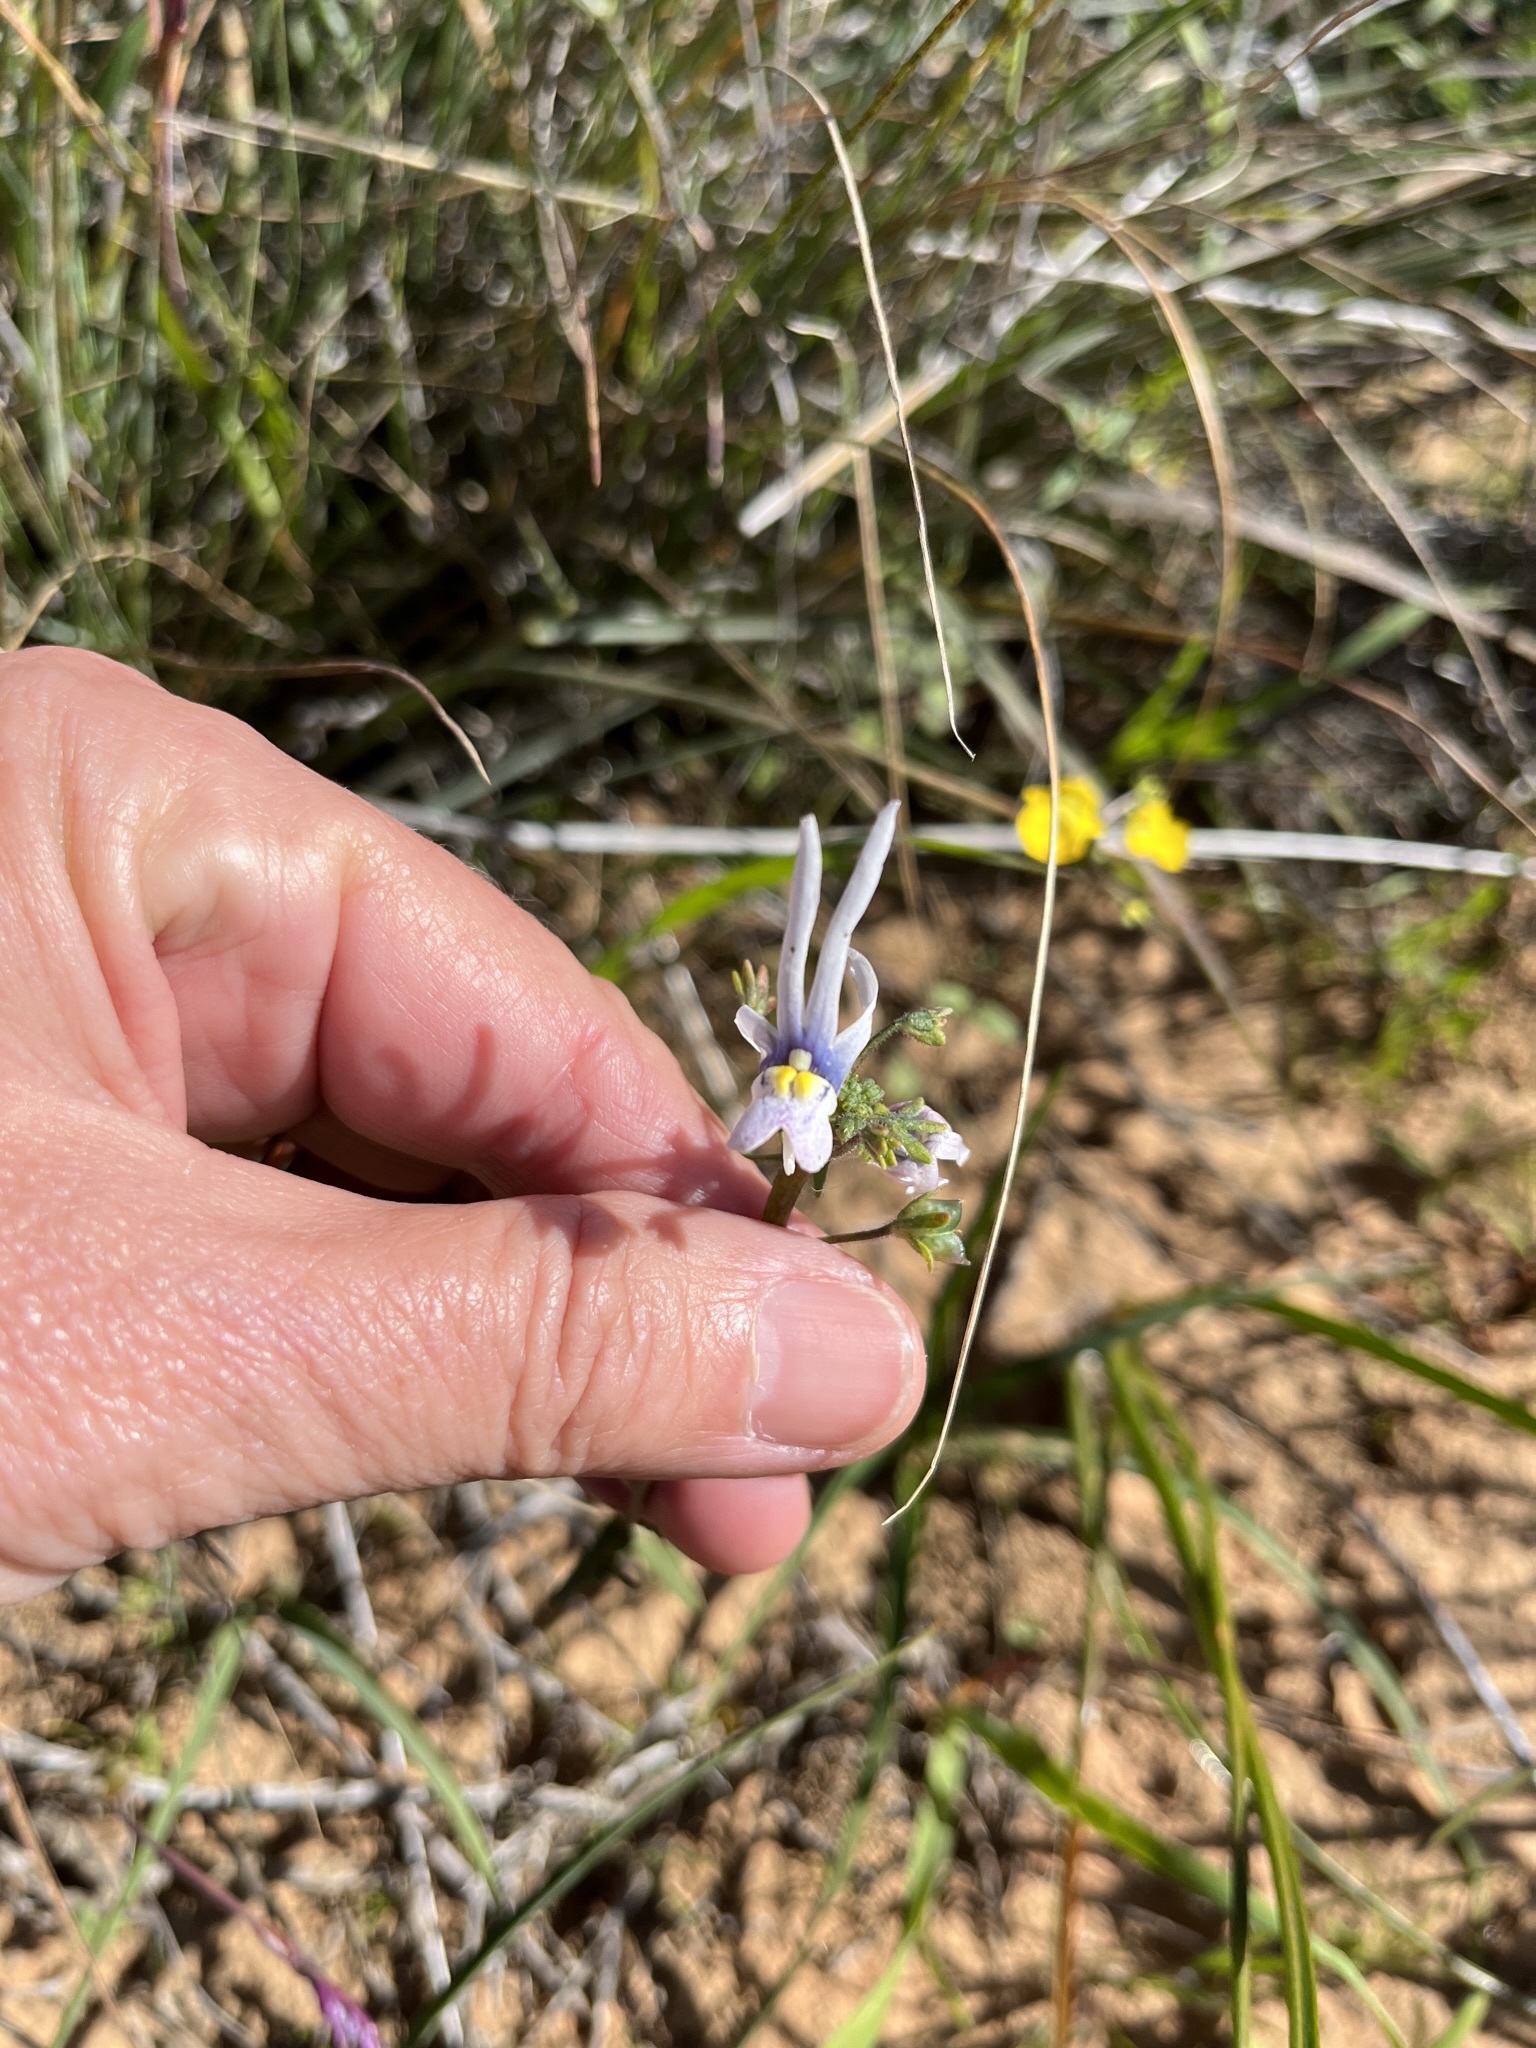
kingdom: Plantae
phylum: Tracheophyta
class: Magnoliopsida
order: Lamiales
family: Scrophulariaceae
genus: Nemesia
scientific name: Nemesia cheiranthus
